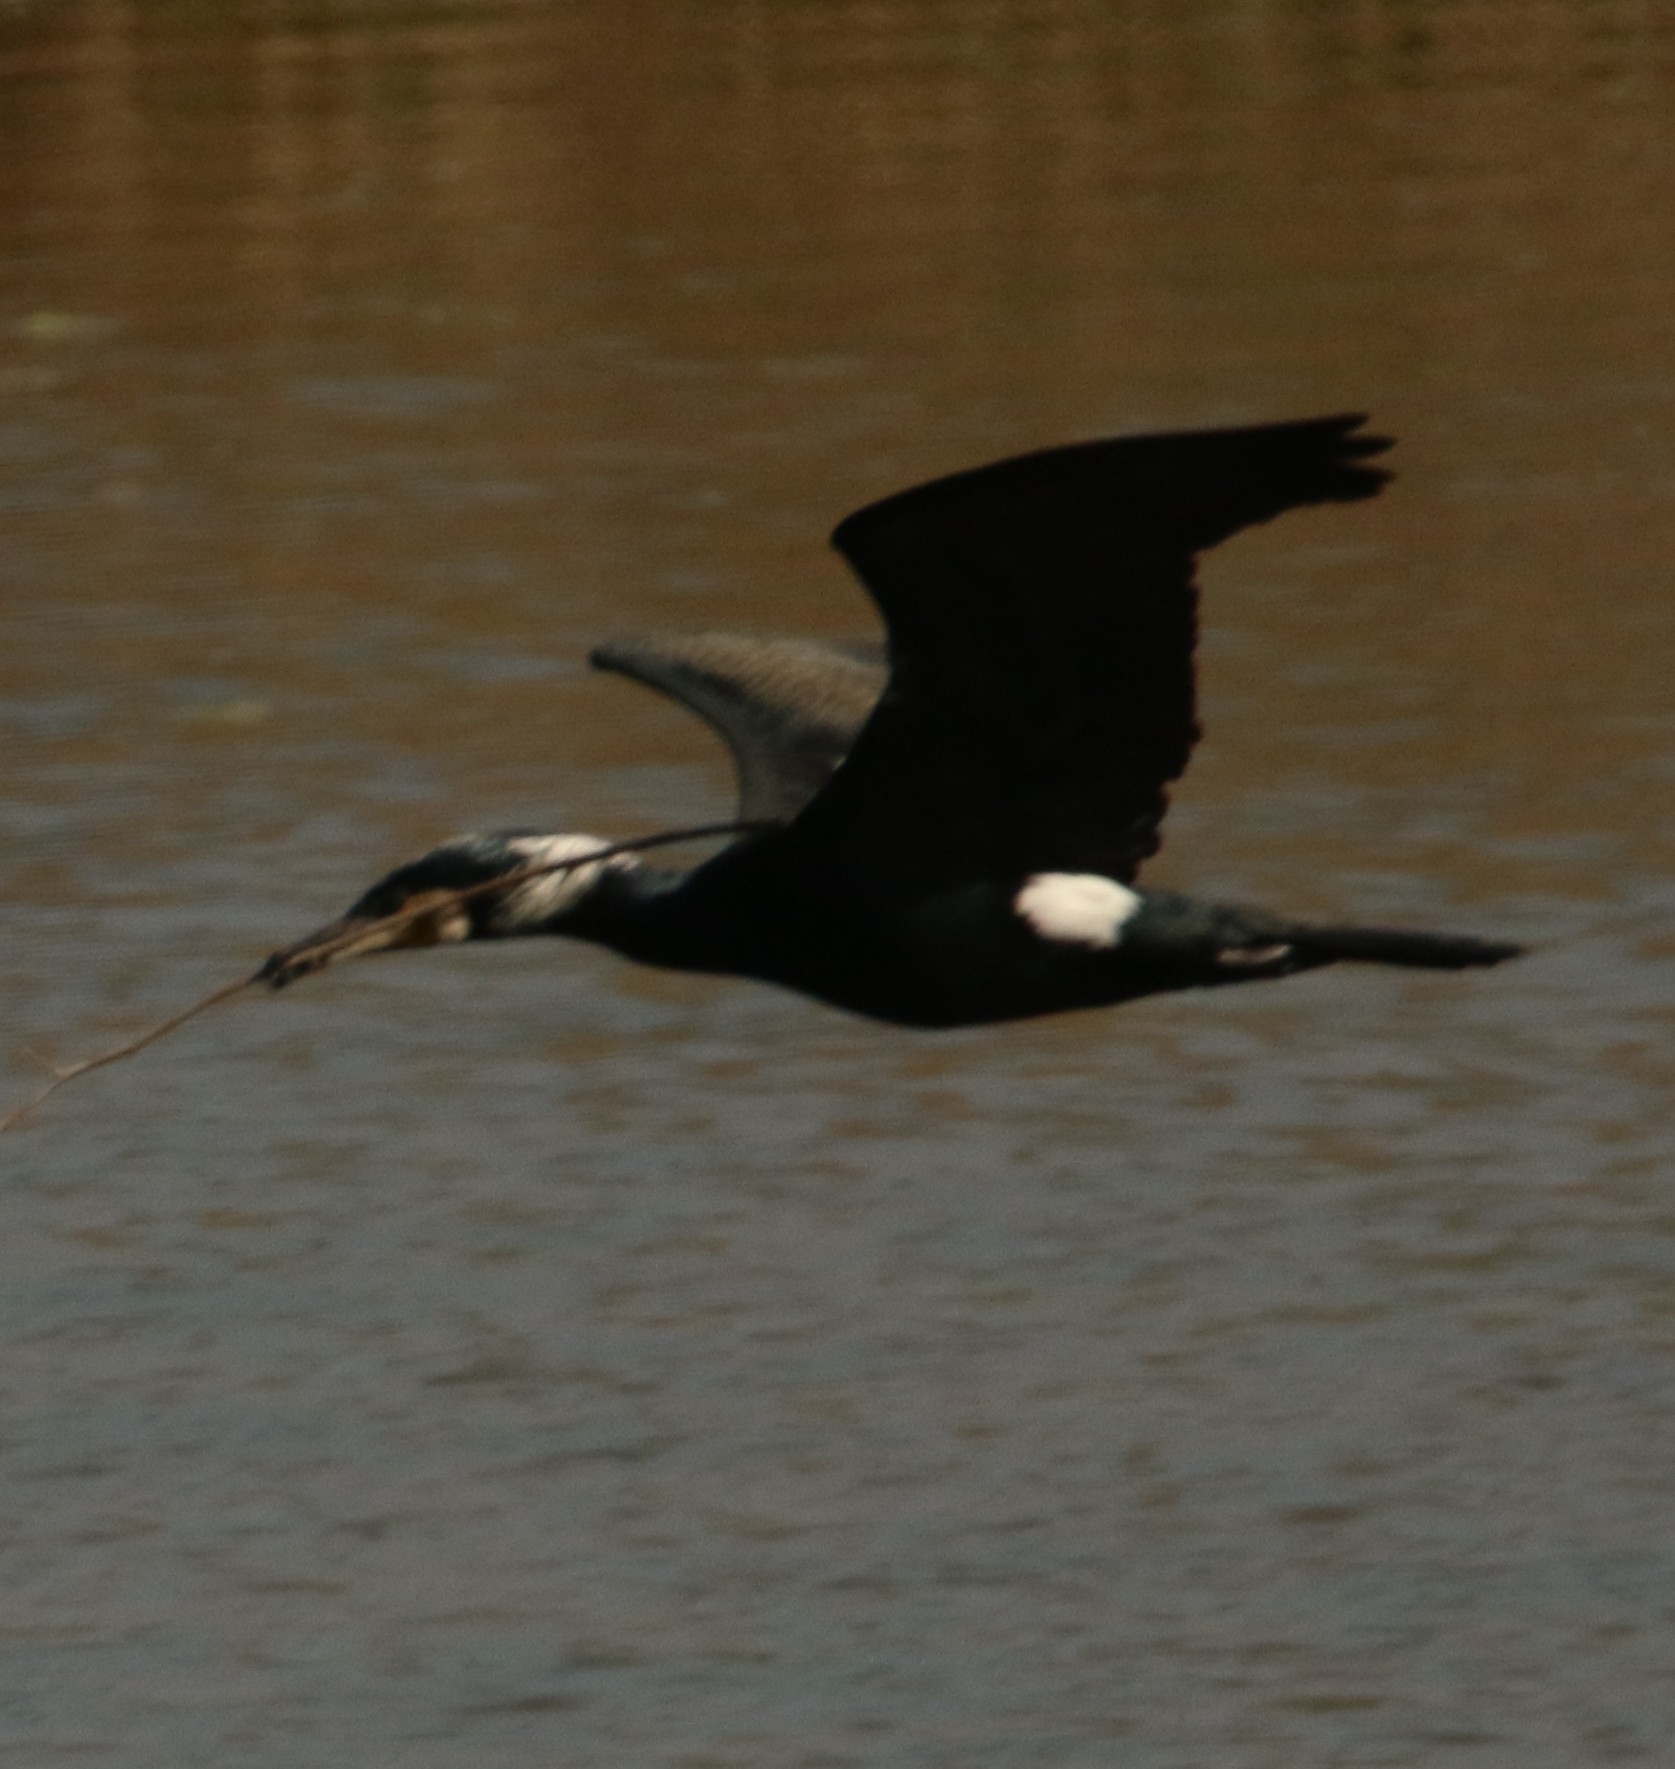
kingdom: Animalia
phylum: Chordata
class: Aves
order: Suliformes
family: Phalacrocoracidae
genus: Phalacrocorax
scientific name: Phalacrocorax carbo
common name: Great cormorant
